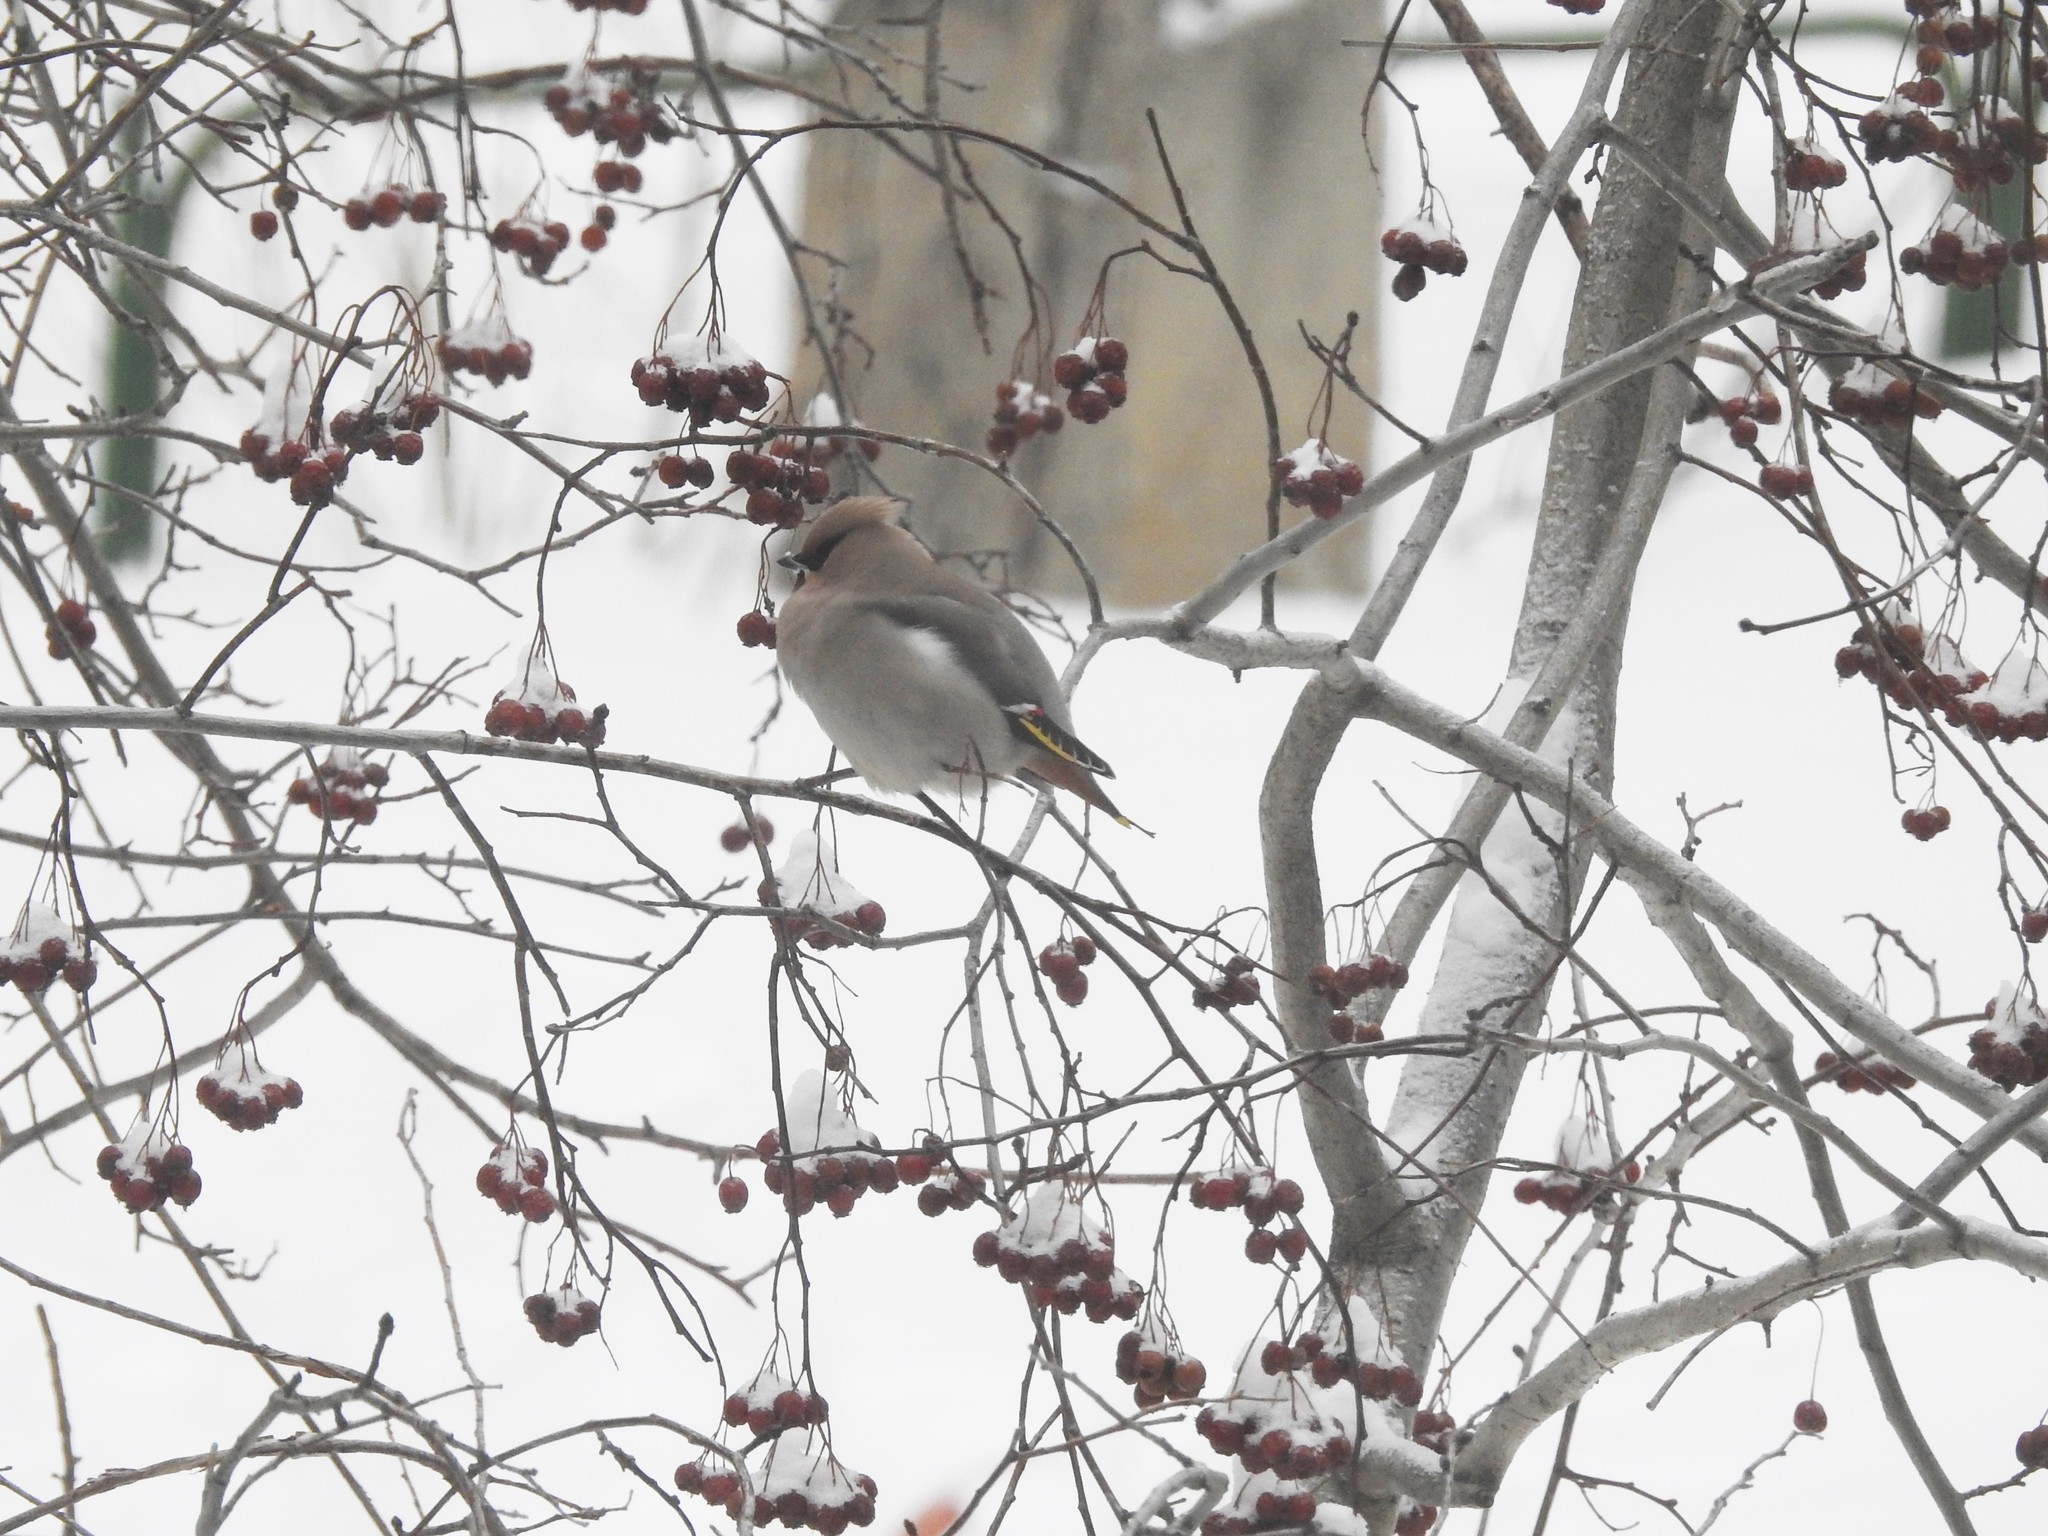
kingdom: Animalia
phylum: Chordata
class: Aves
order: Passeriformes
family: Bombycillidae
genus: Bombycilla
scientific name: Bombycilla garrulus
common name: Bohemian waxwing
